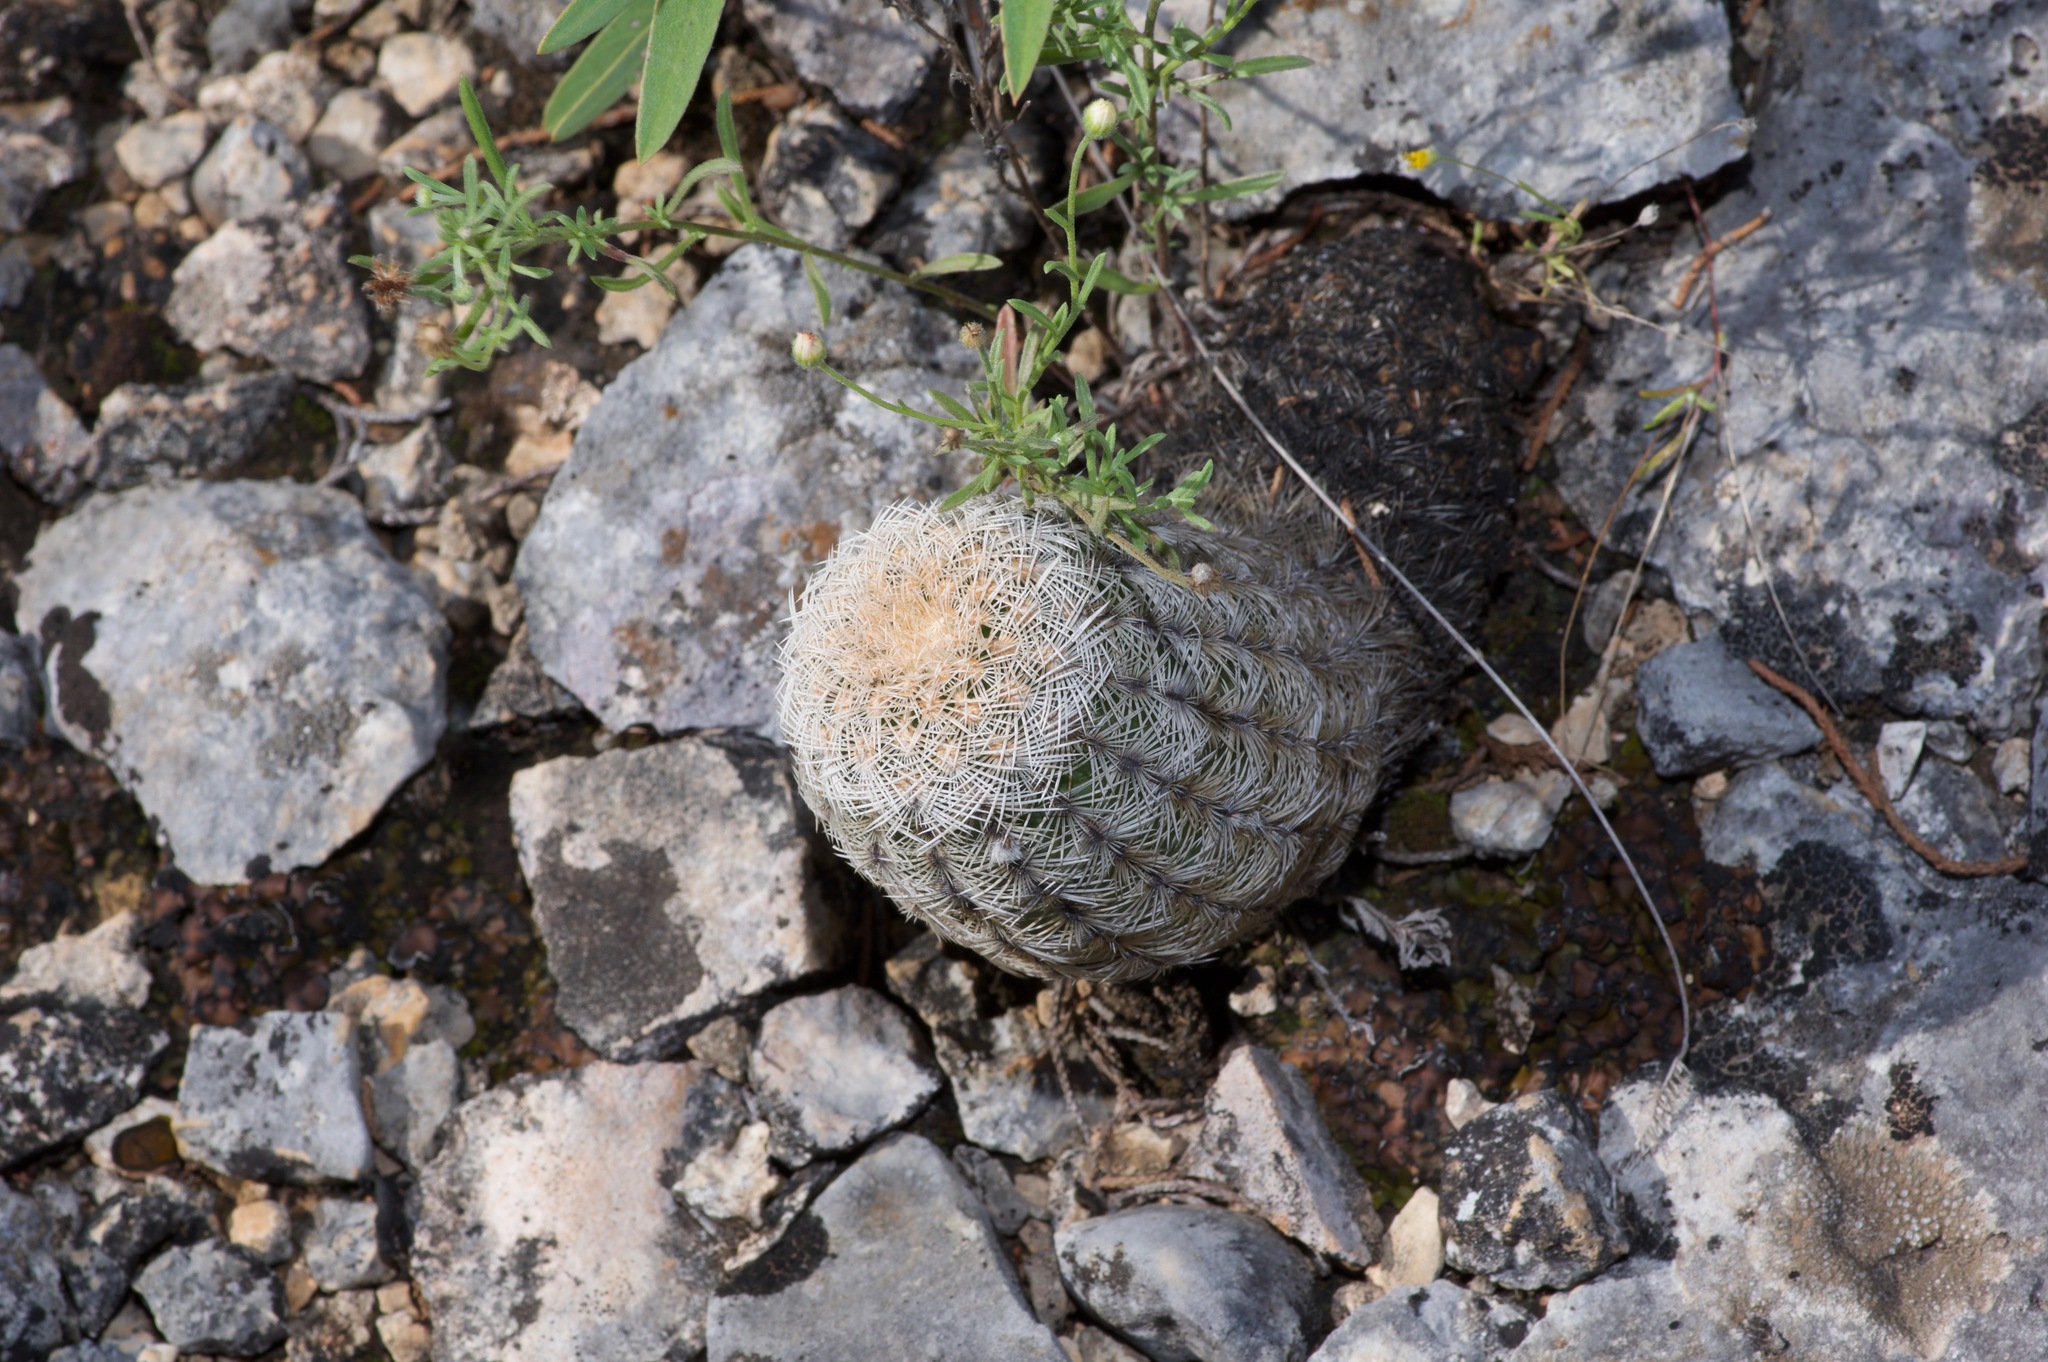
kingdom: Plantae
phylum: Tracheophyta
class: Magnoliopsida
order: Caryophyllales
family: Cactaceae
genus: Echinocereus
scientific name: Echinocereus reichenbachii
